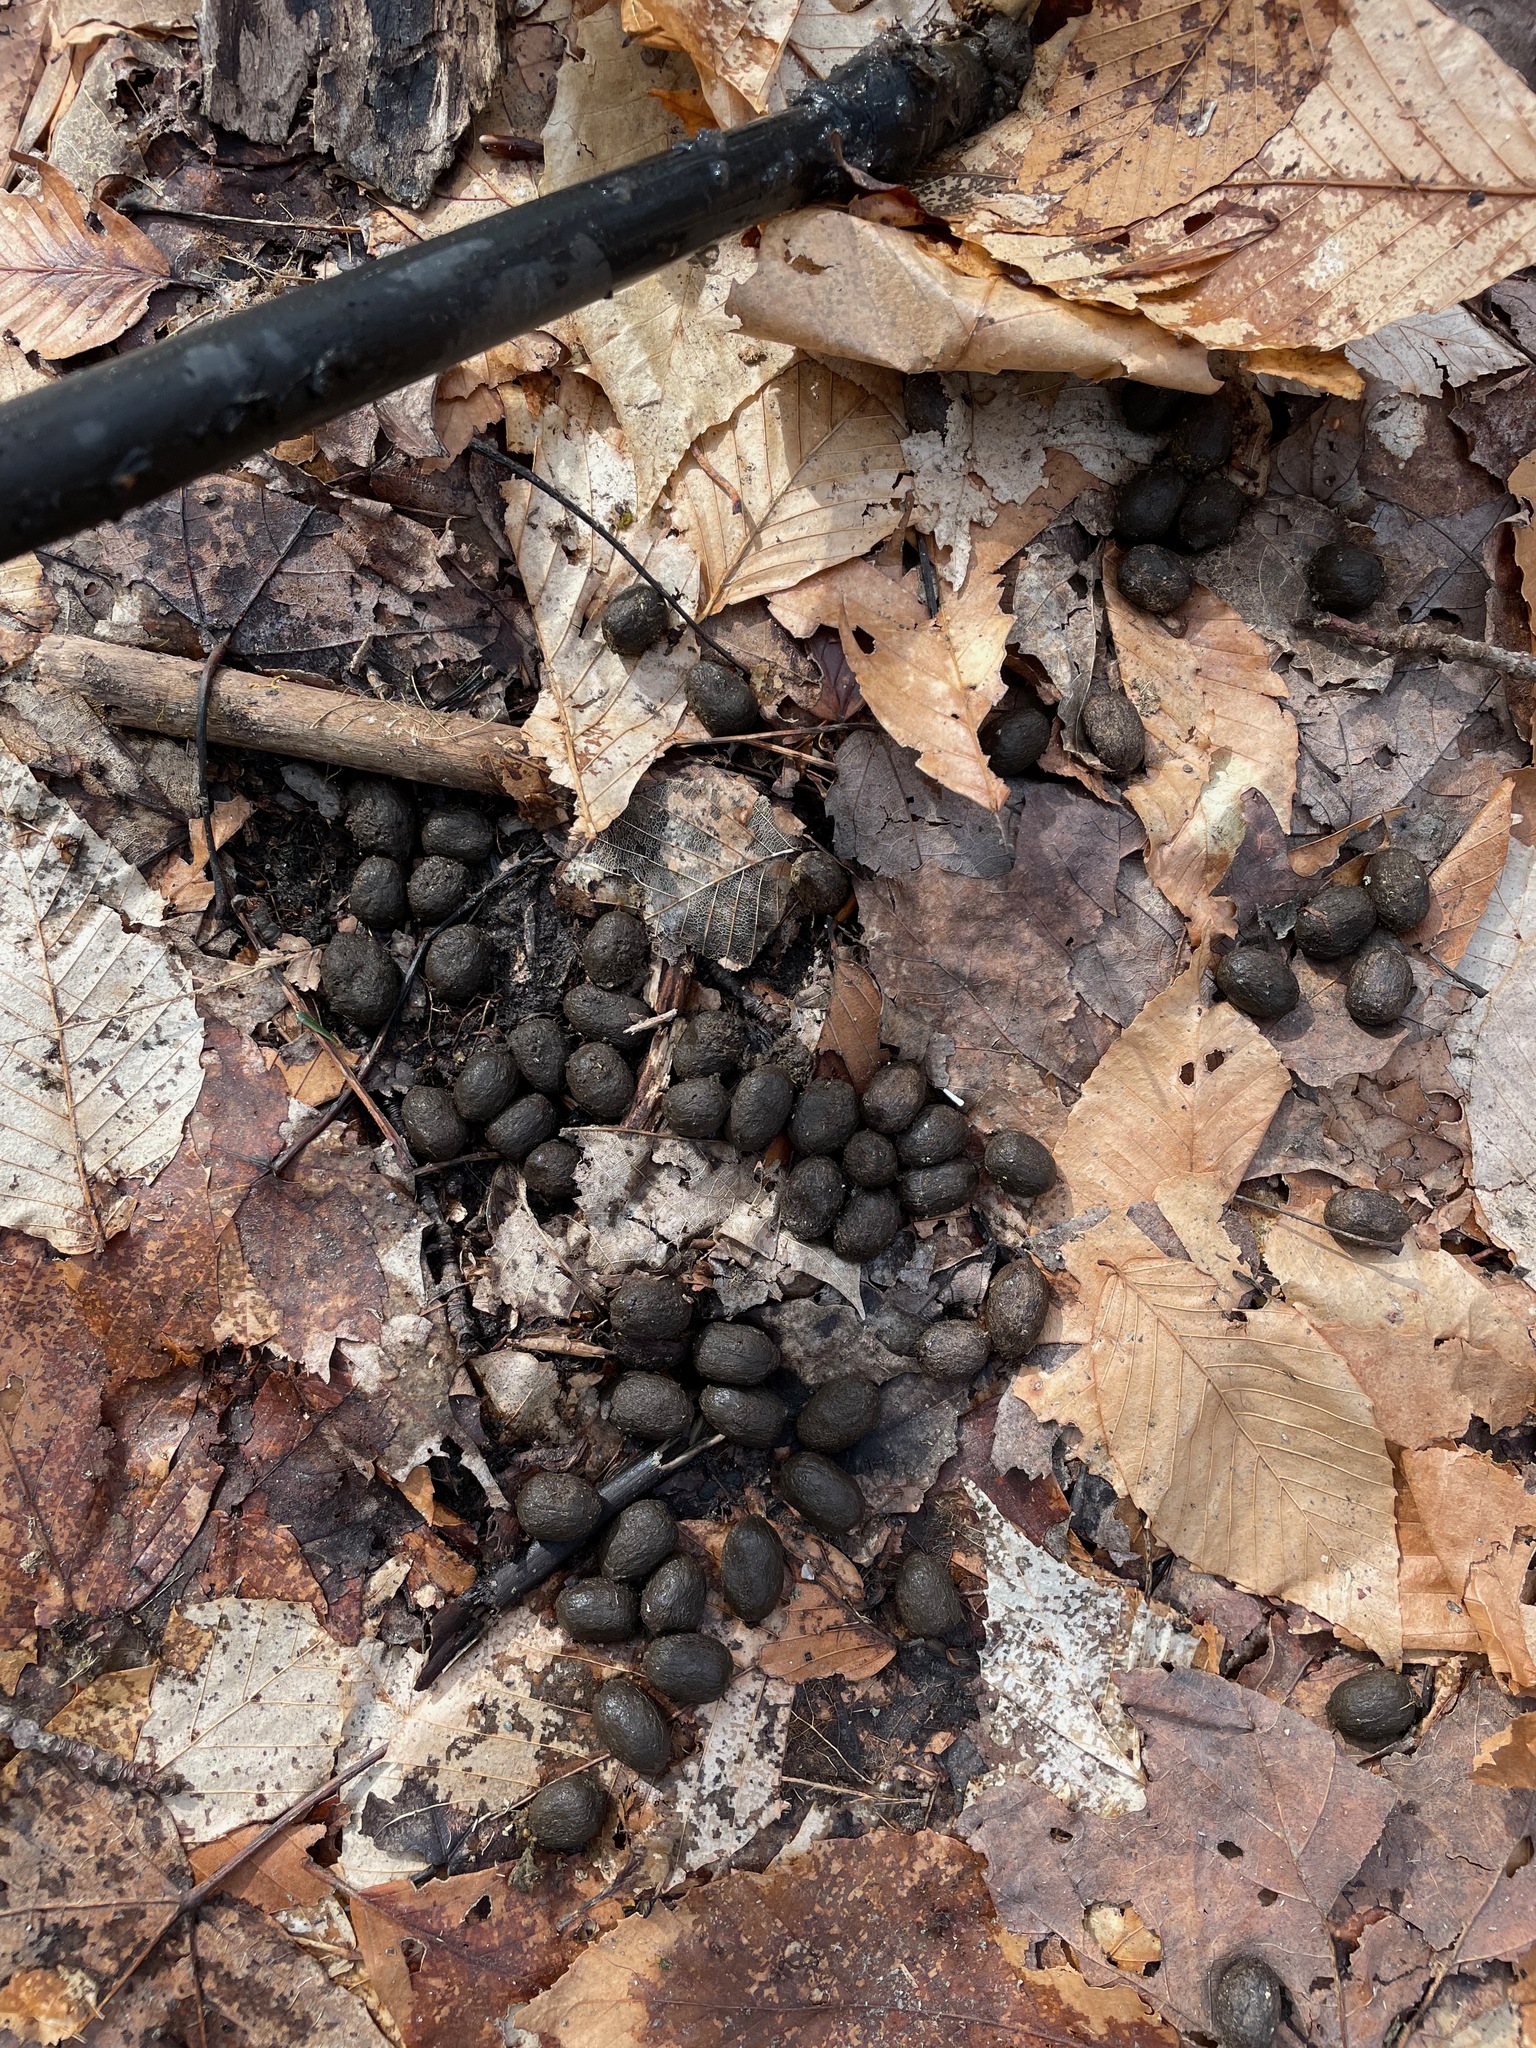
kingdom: Animalia
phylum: Chordata
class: Mammalia
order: Artiodactyla
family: Cervidae
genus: Odocoileus
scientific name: Odocoileus virginianus
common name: White-tailed deer
